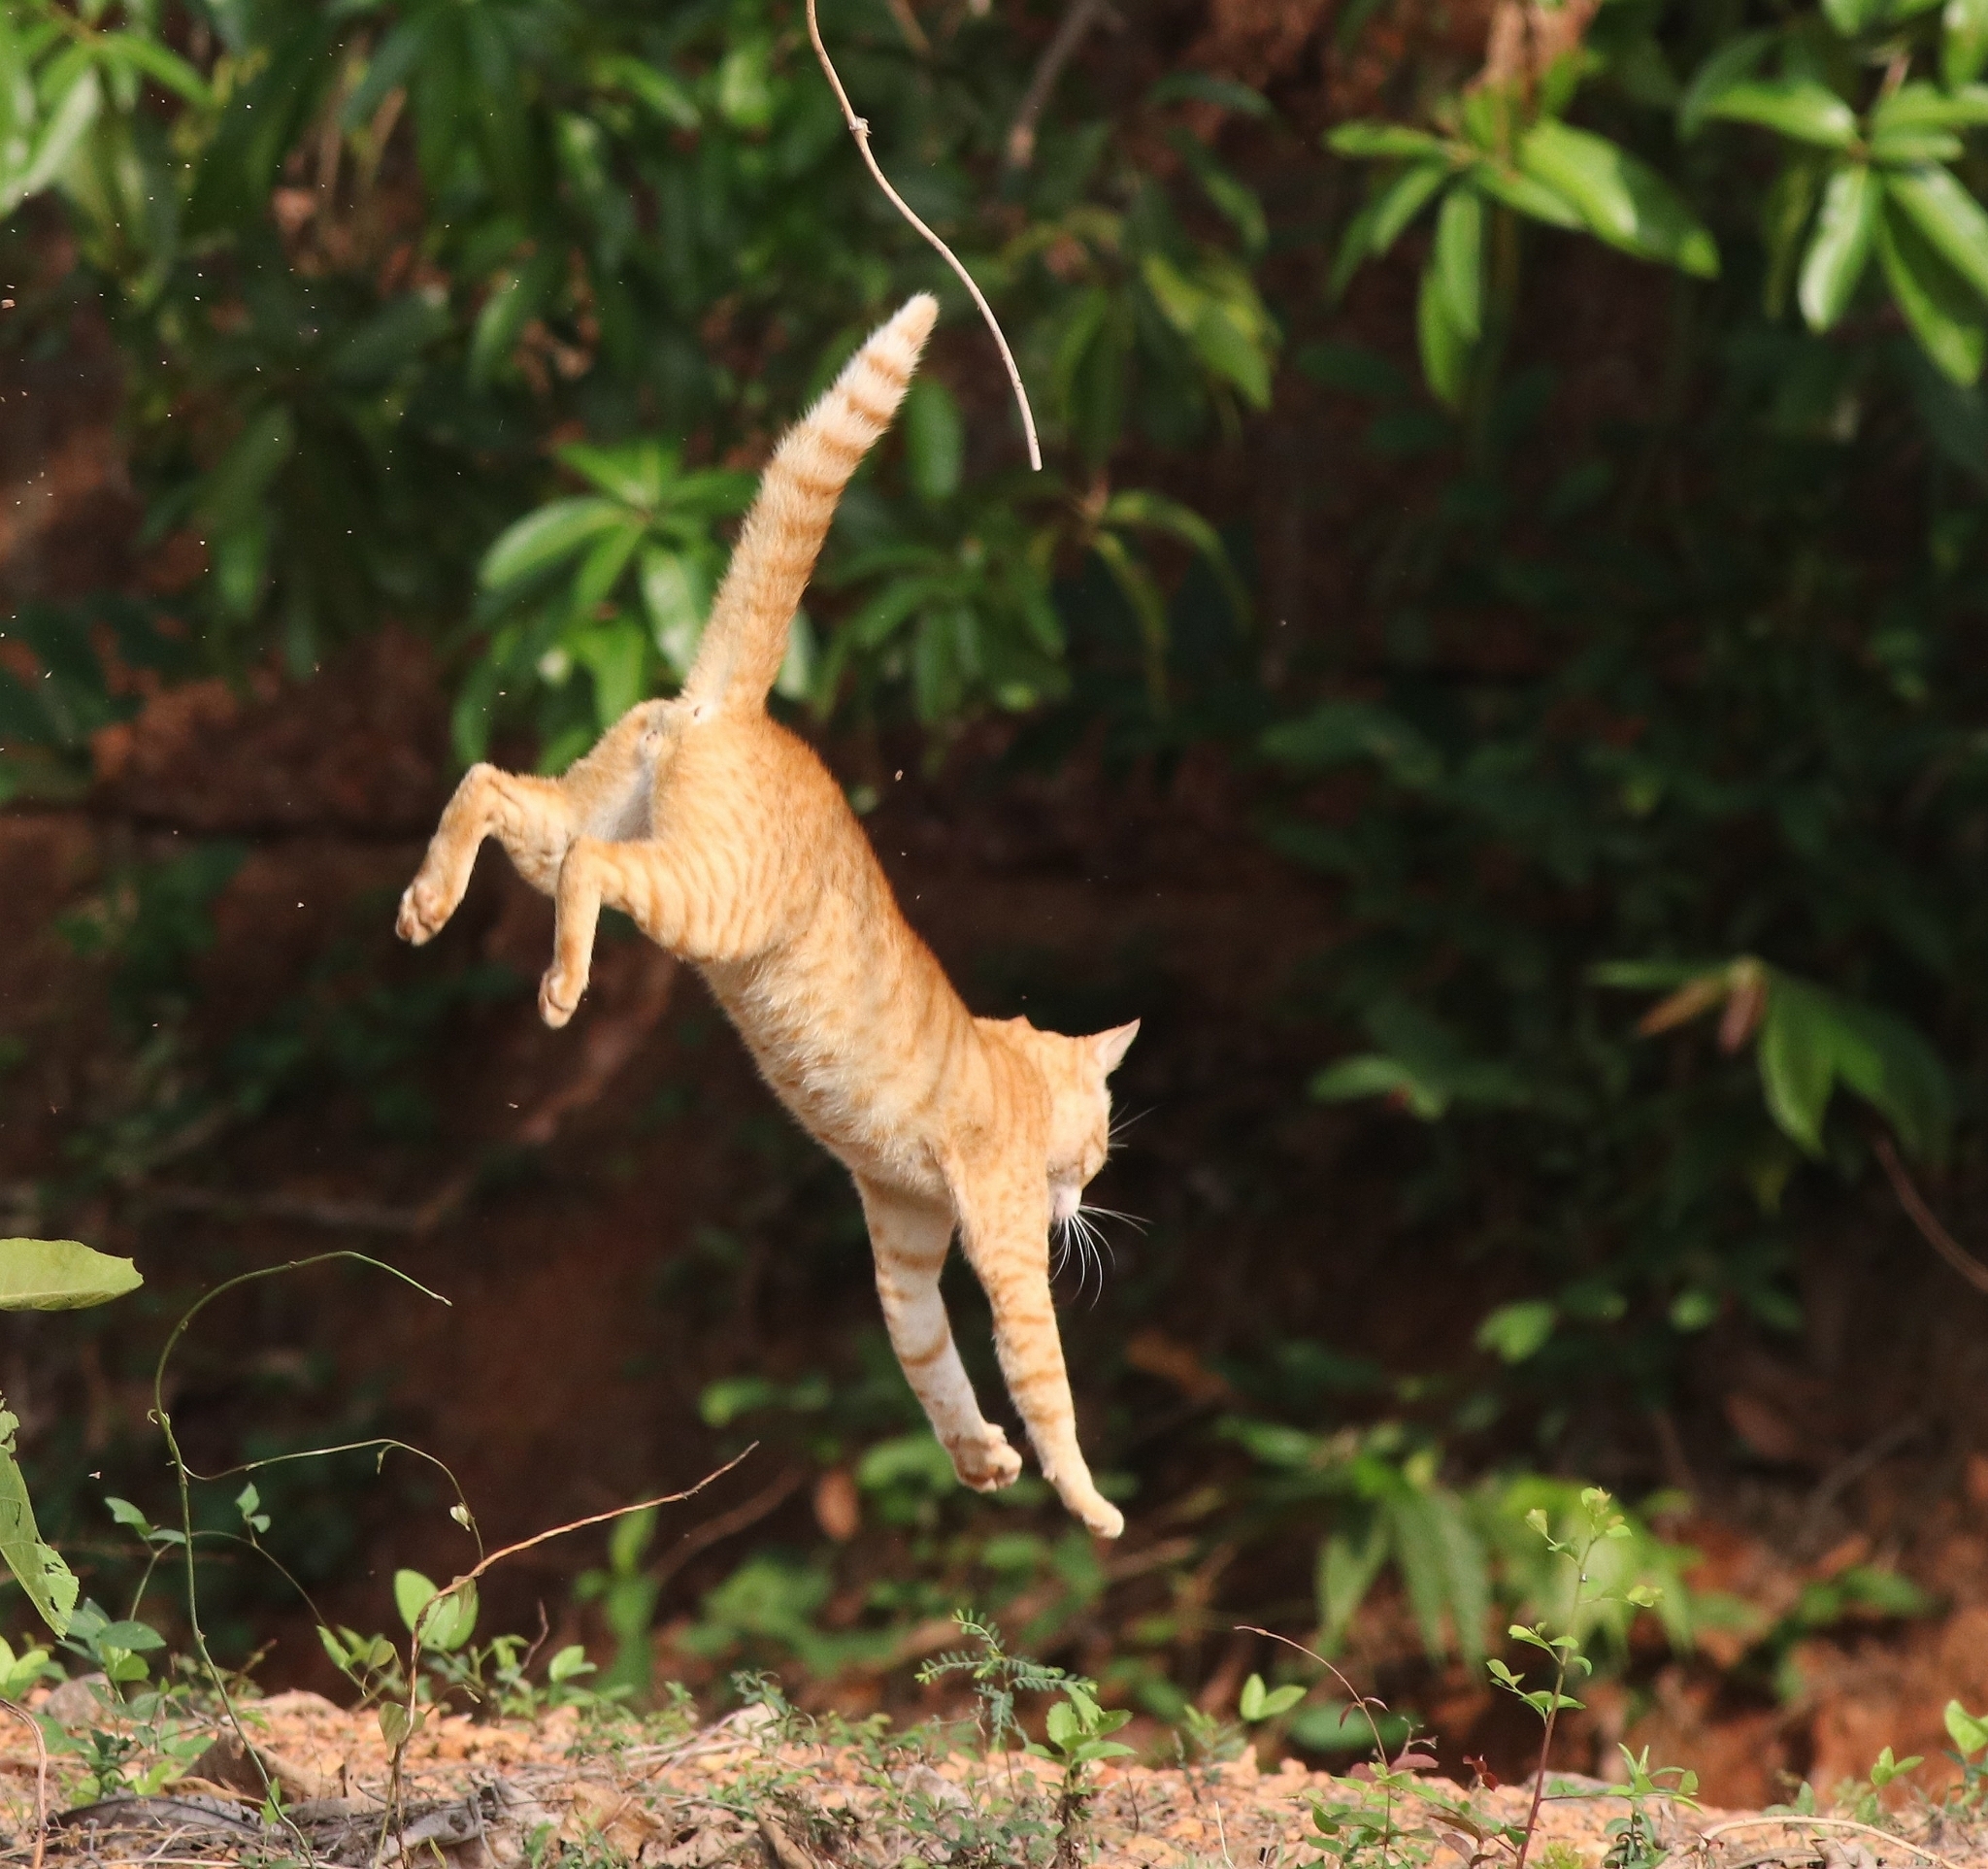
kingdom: Animalia
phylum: Chordata
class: Mammalia
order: Carnivora
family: Felidae
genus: Felis
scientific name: Felis catus
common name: Domestic cat
